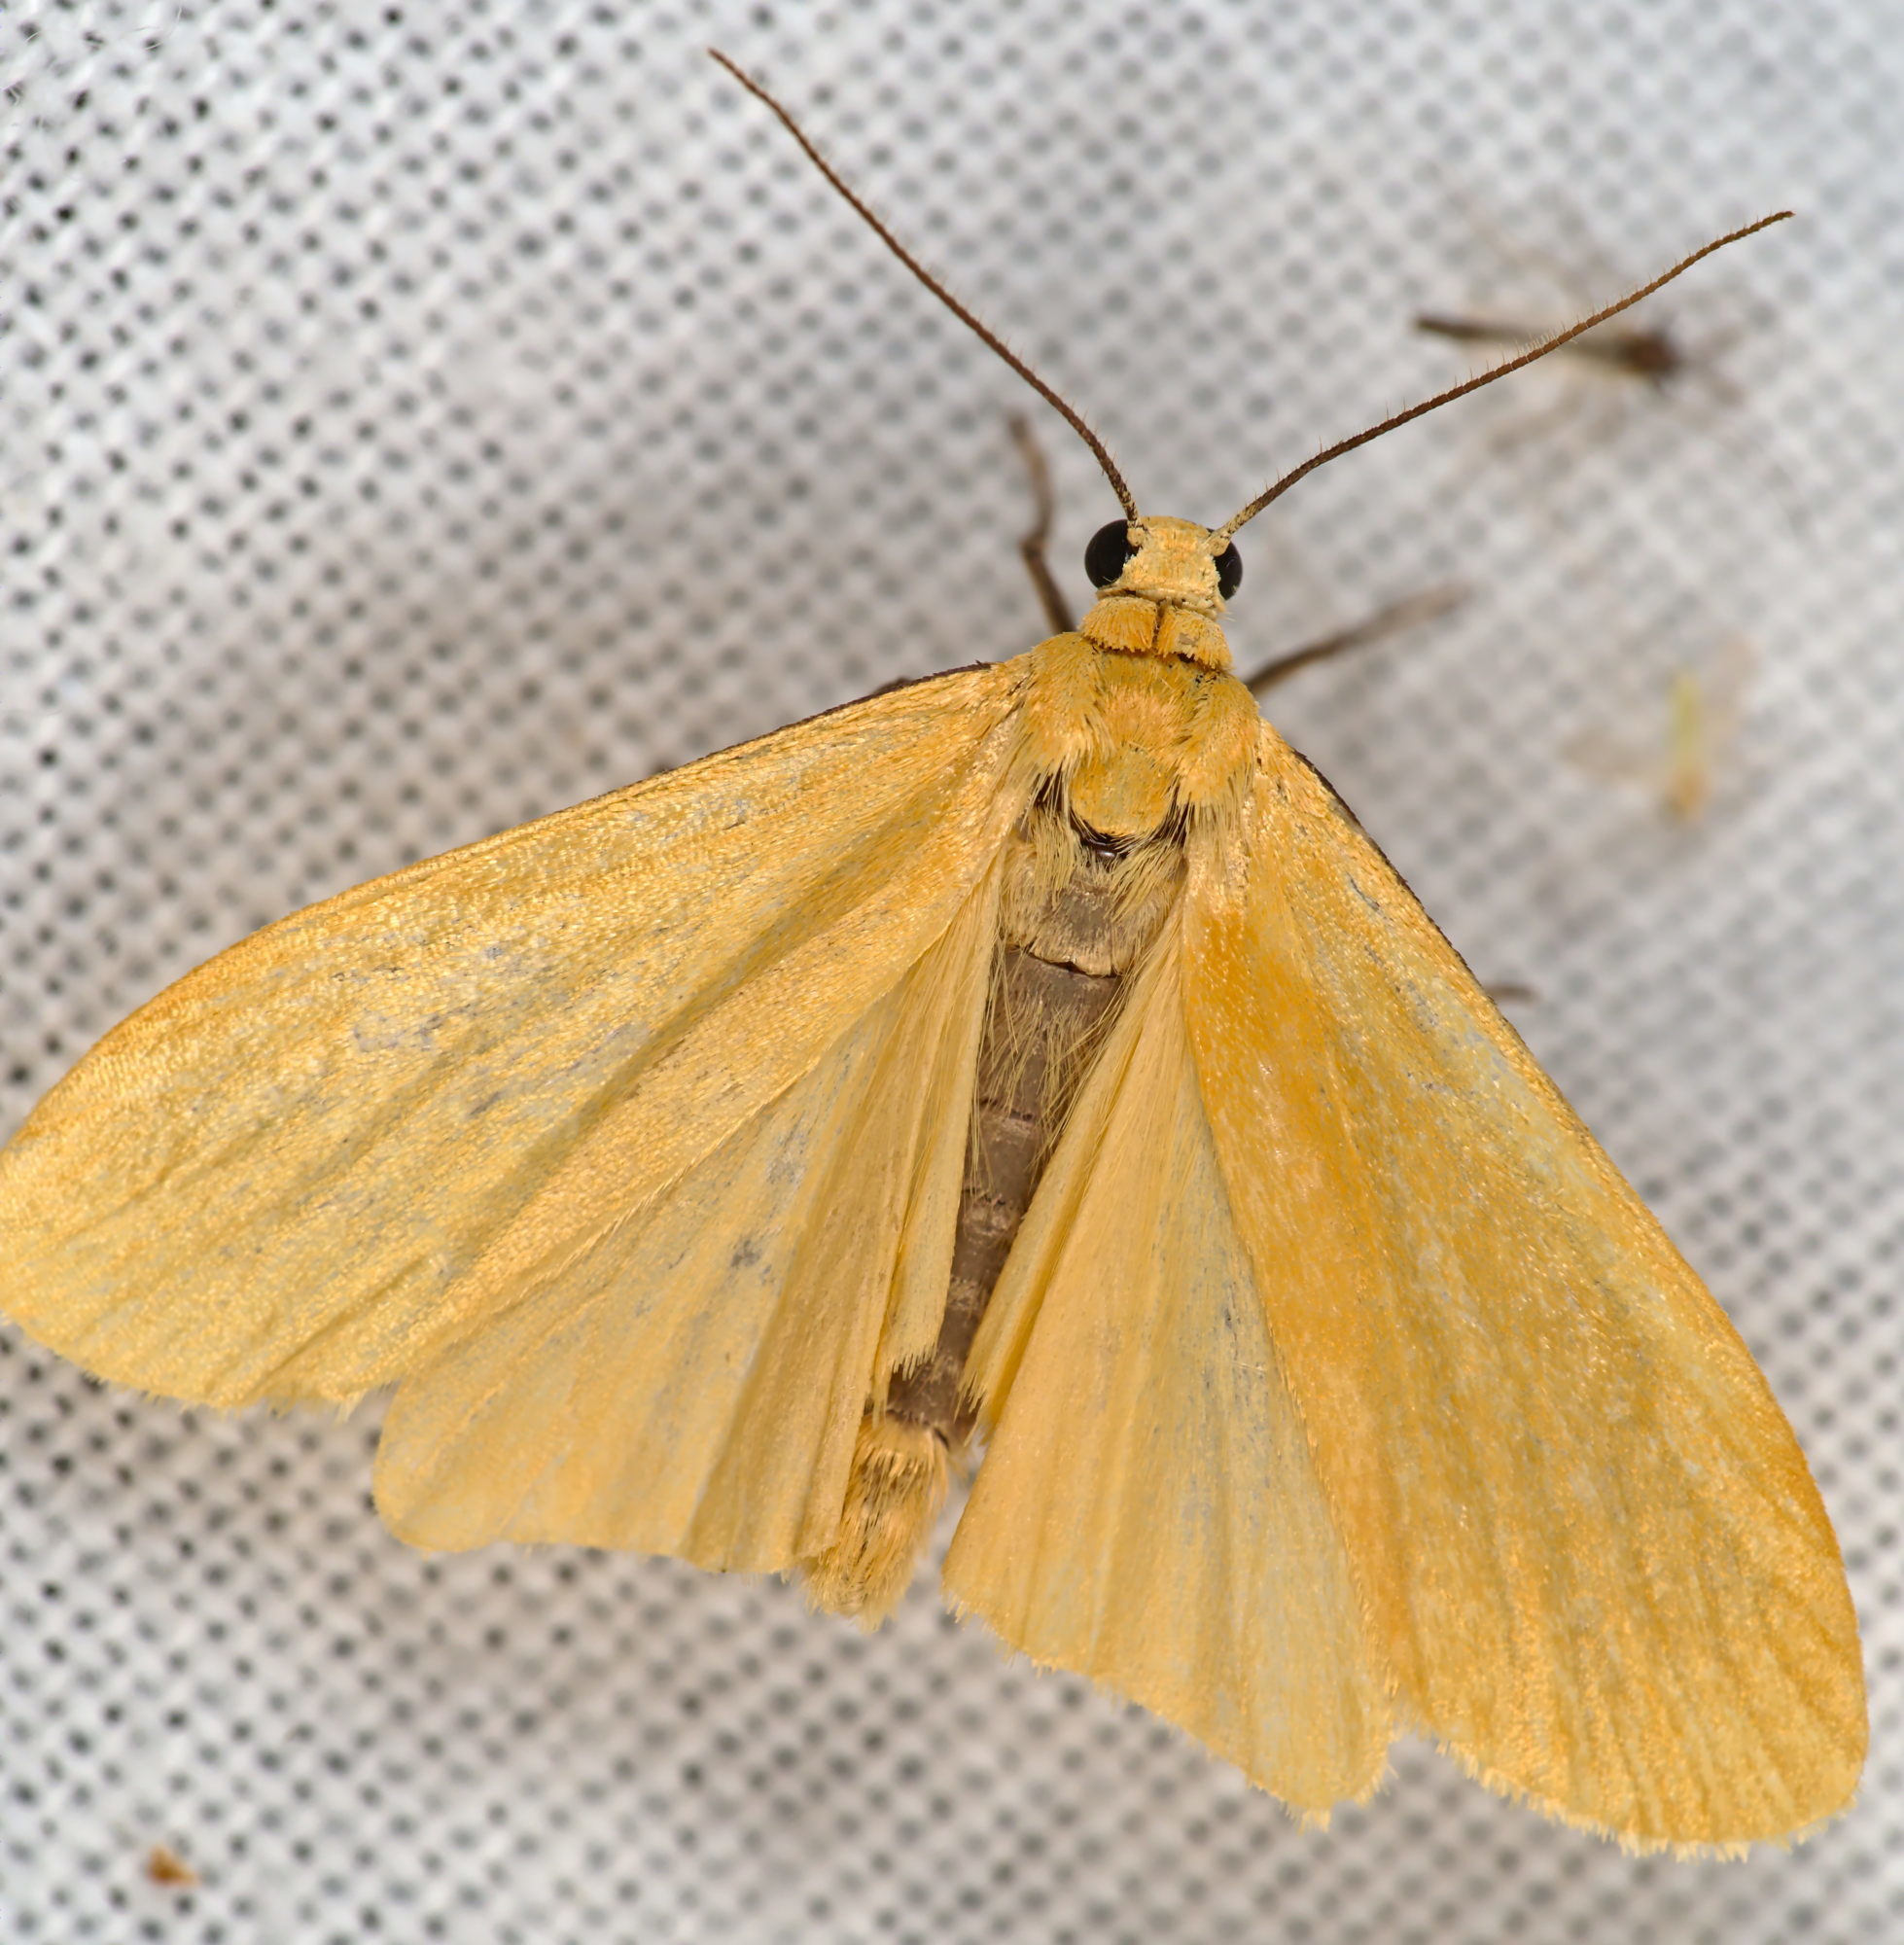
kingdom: Animalia
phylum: Arthropoda
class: Insecta
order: Lepidoptera
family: Erebidae
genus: Wittia
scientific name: Wittia sororcula
